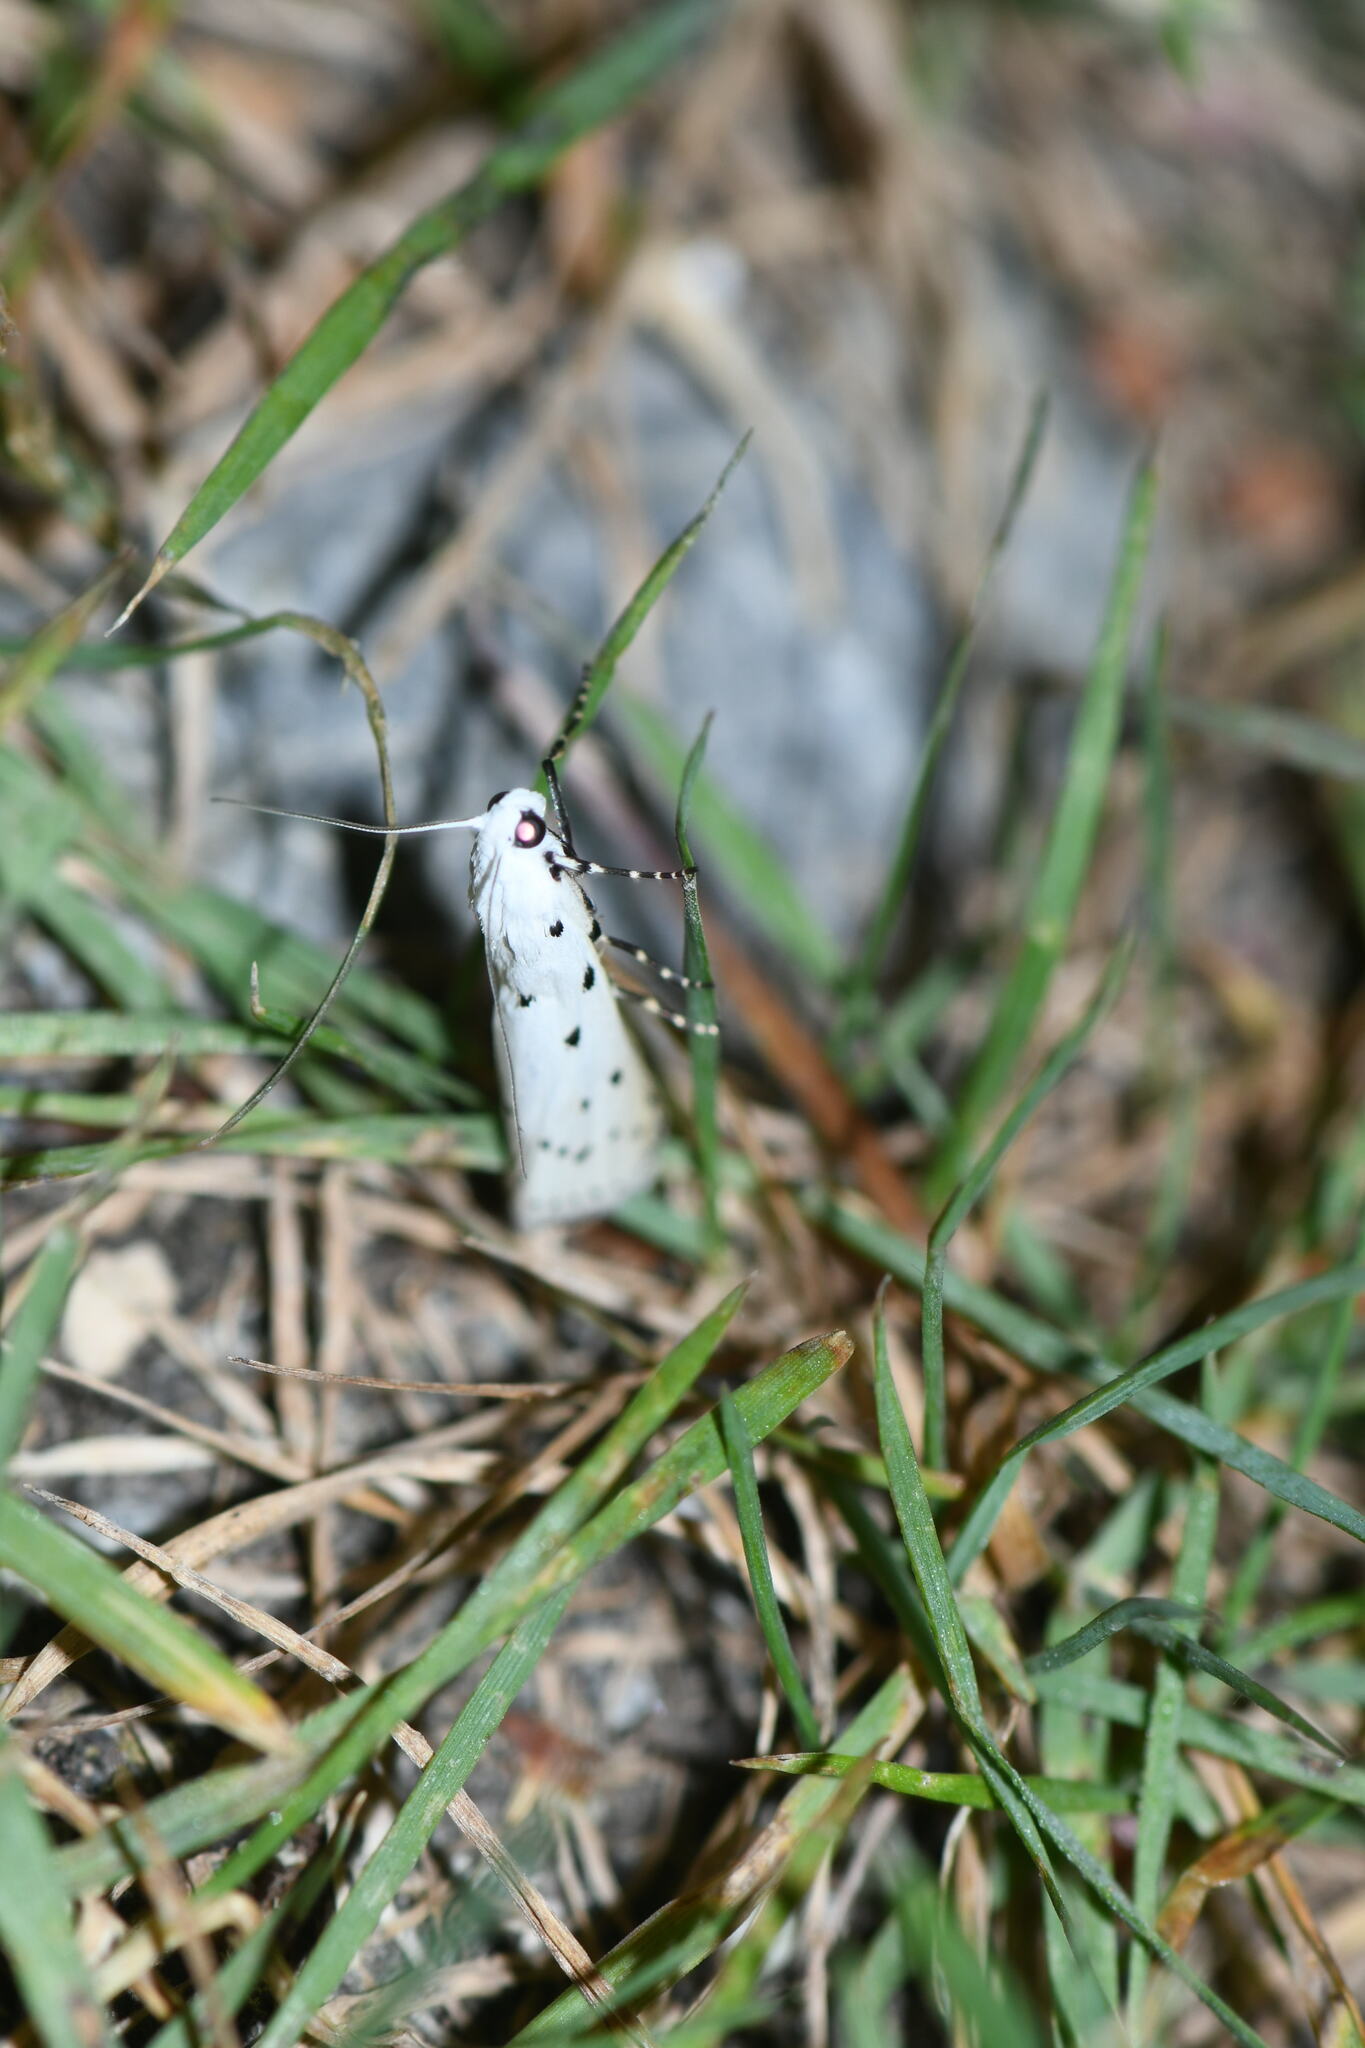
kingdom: Animalia
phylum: Arthropoda
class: Insecta
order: Lepidoptera
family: Pyralidae
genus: Myelois
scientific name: Myelois circumvoluta
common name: Thistle ermine
